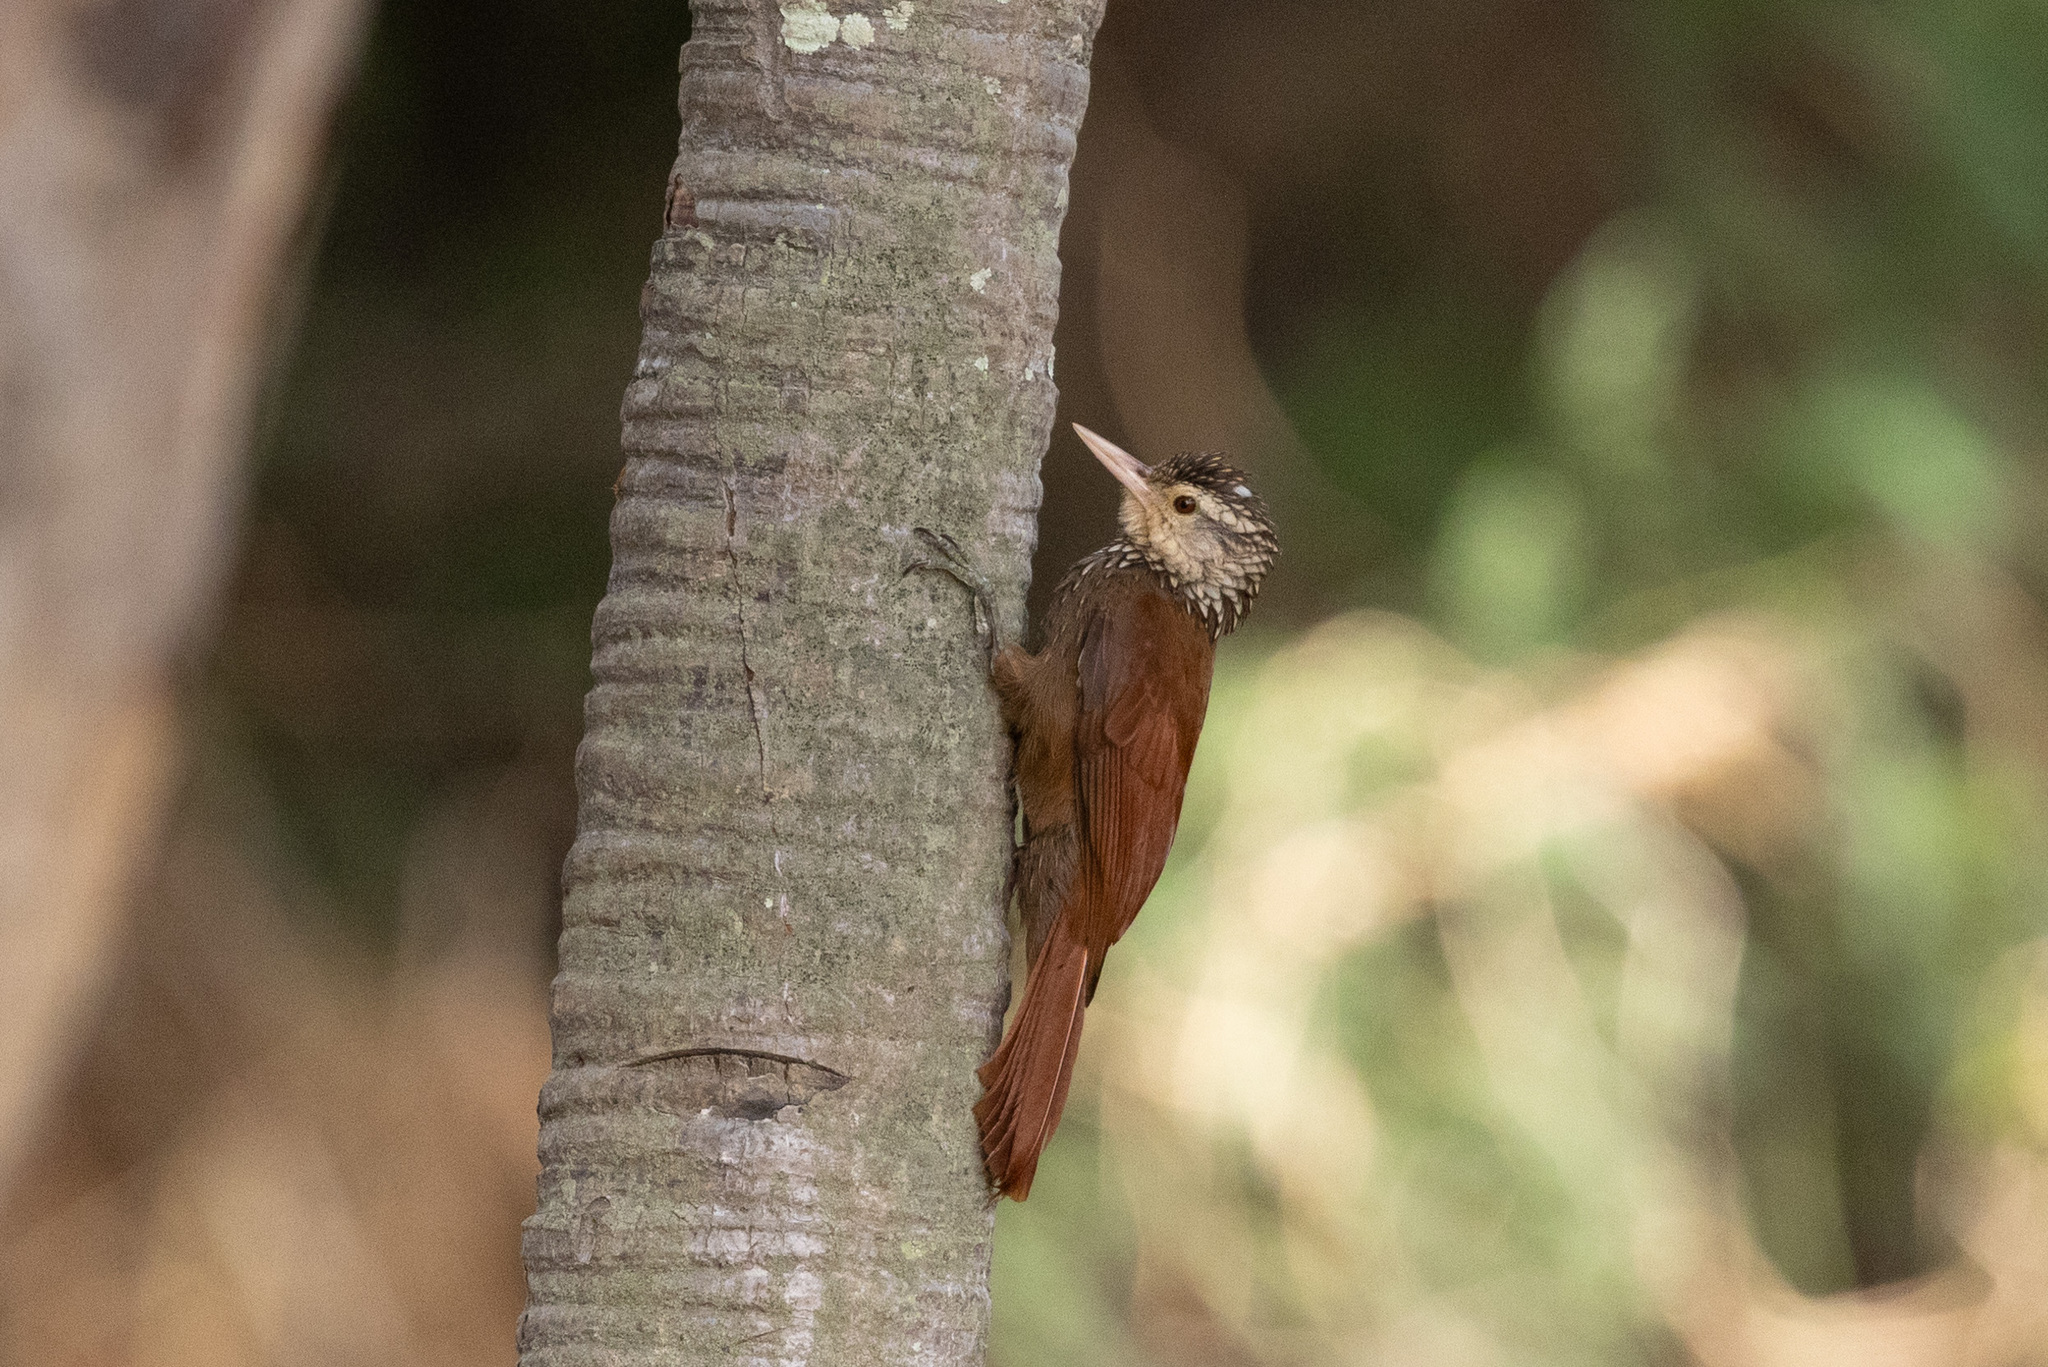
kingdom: Animalia
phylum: Chordata
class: Aves
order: Passeriformes
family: Furnariidae
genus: Xiphorhynchus
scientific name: Xiphorhynchus picus
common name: Straight-billed woodcreeper
